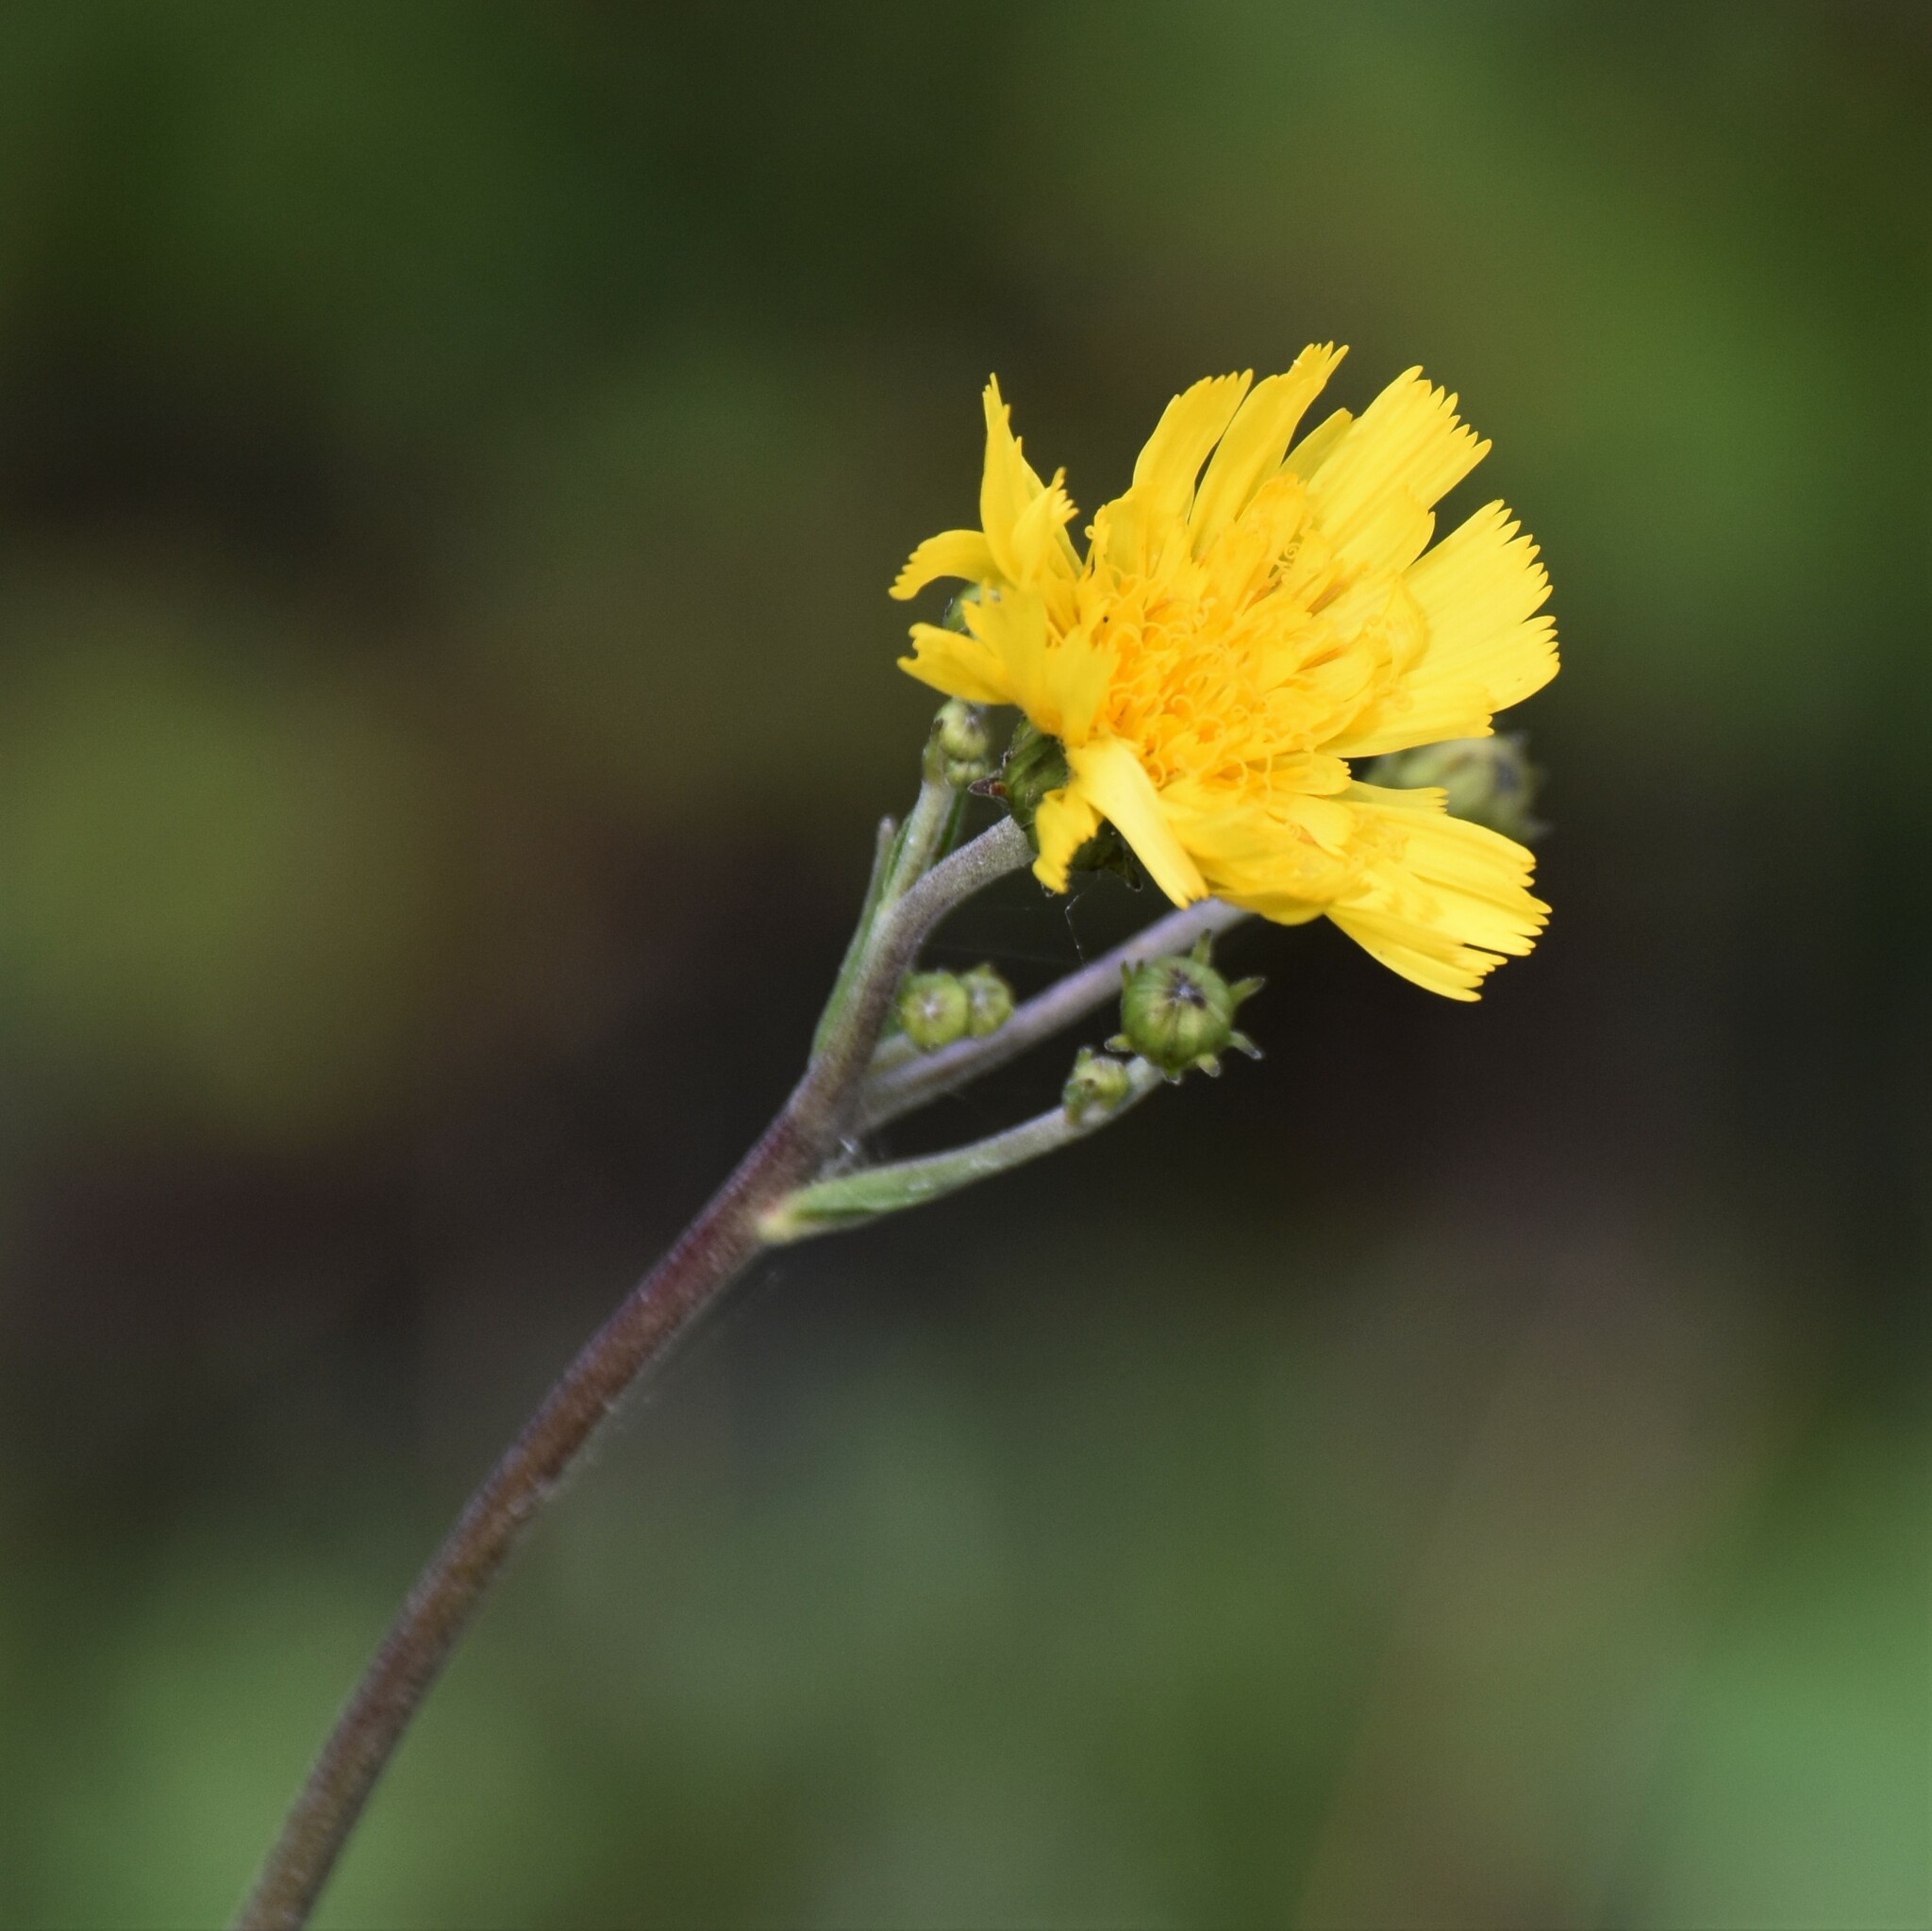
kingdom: Plantae
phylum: Tracheophyta
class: Magnoliopsida
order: Asterales
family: Asteraceae
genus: Hieracium
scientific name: Hieracium umbellatum
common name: Northern hawkweed
